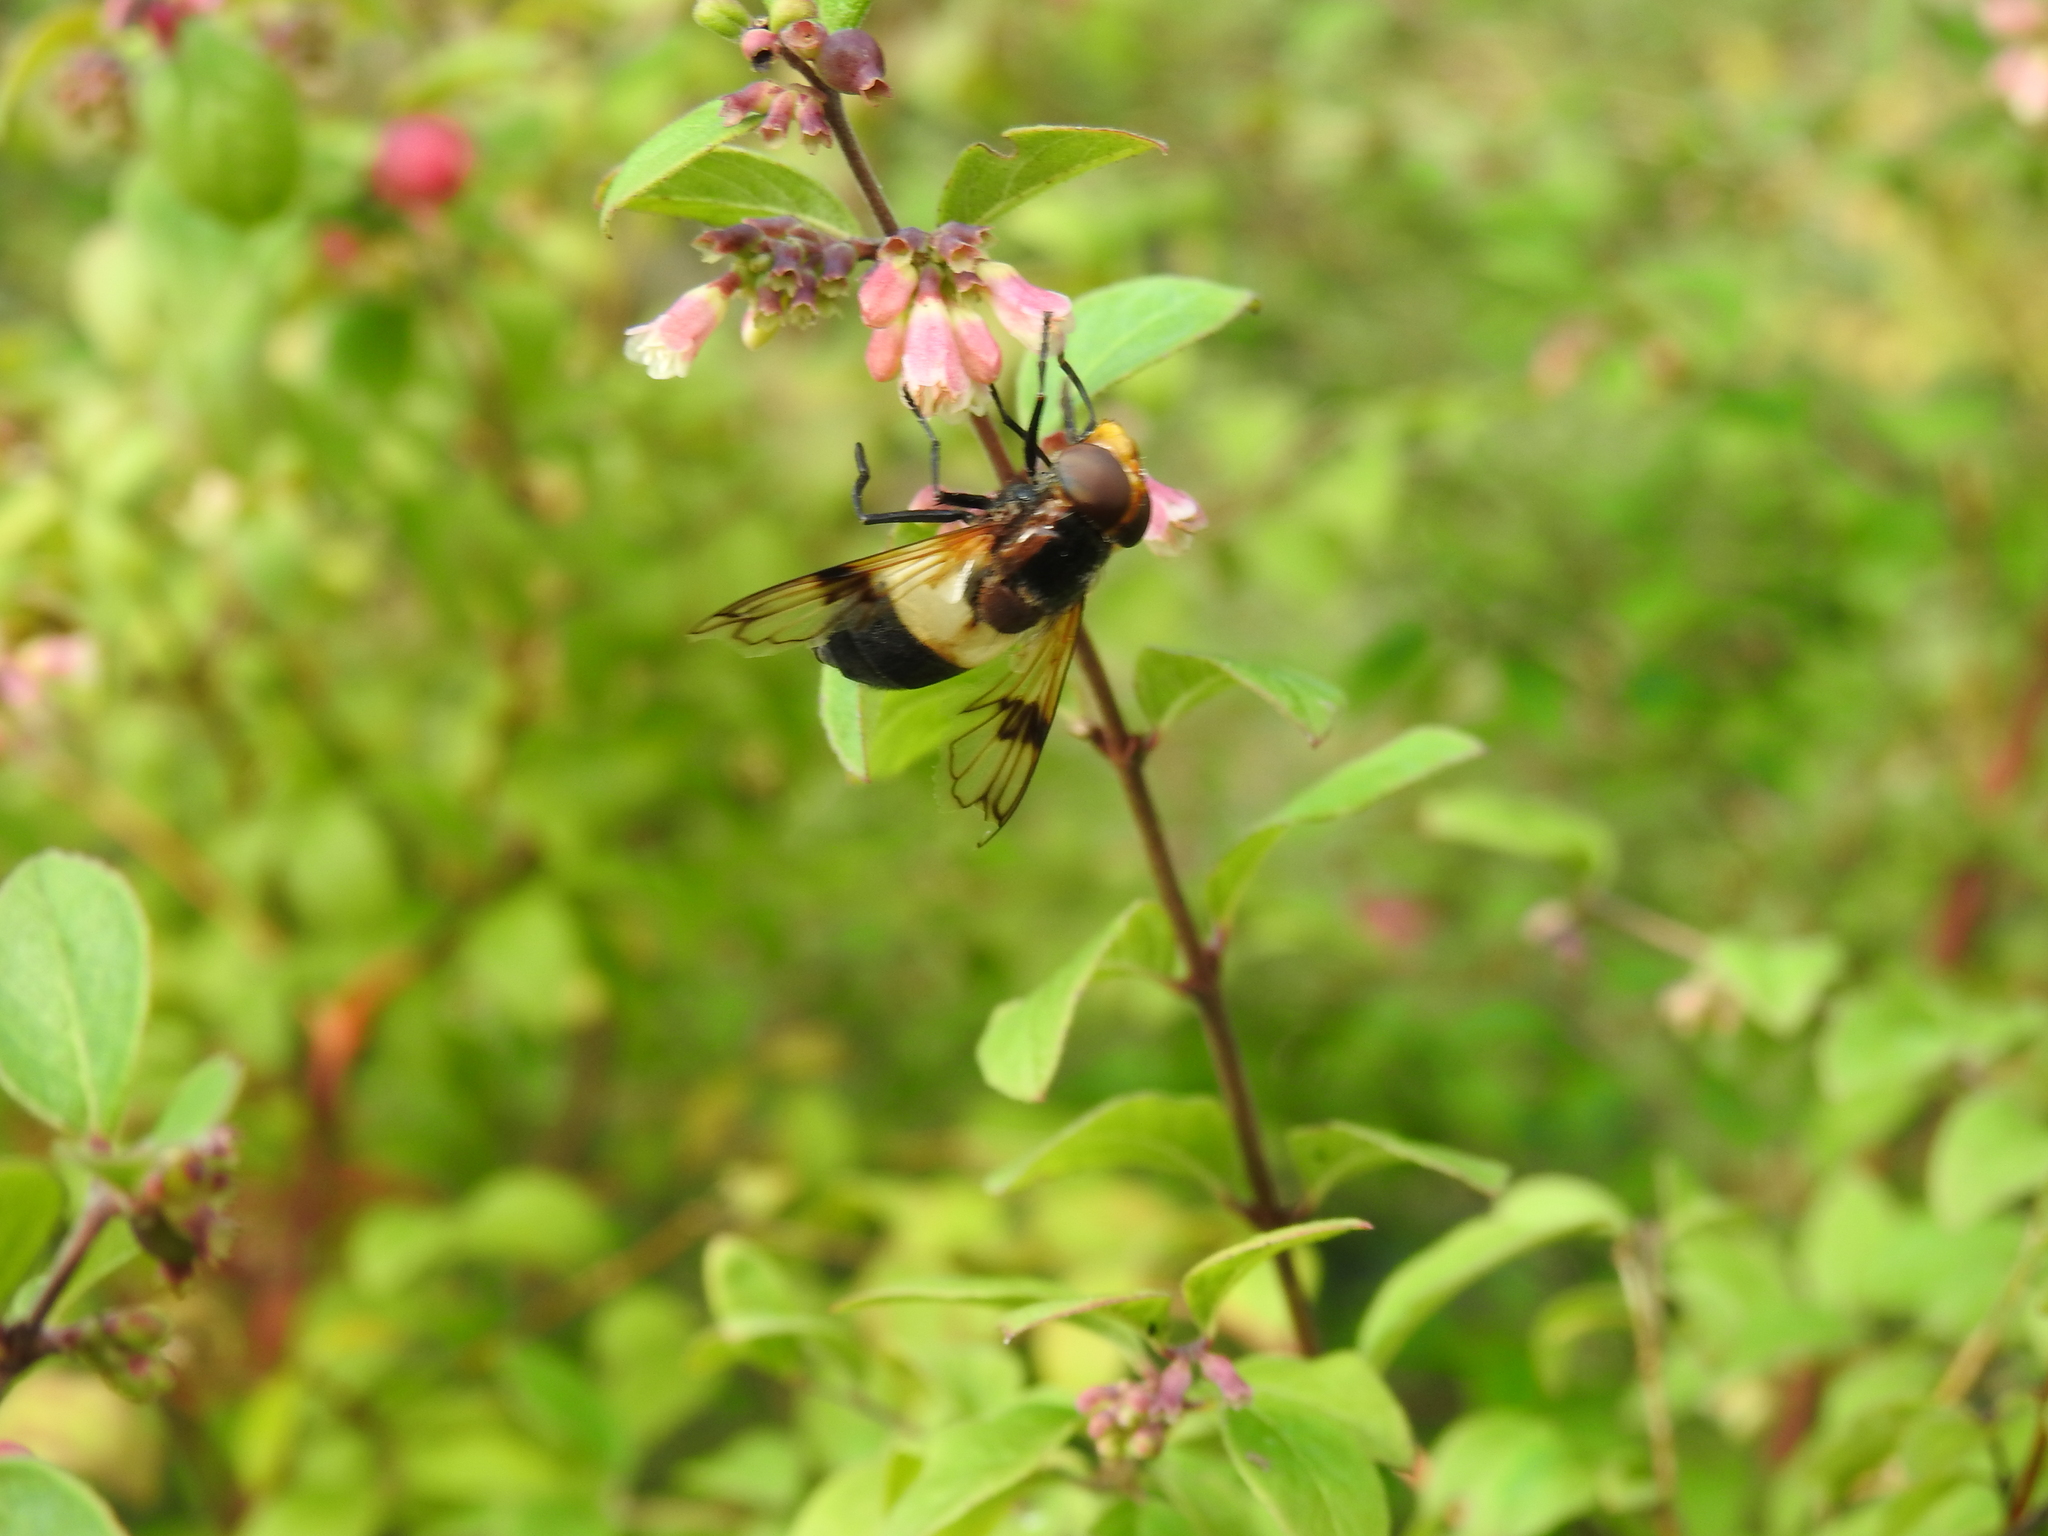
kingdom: Animalia
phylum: Arthropoda
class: Insecta
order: Diptera
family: Syrphidae
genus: Volucella
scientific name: Volucella pellucens
